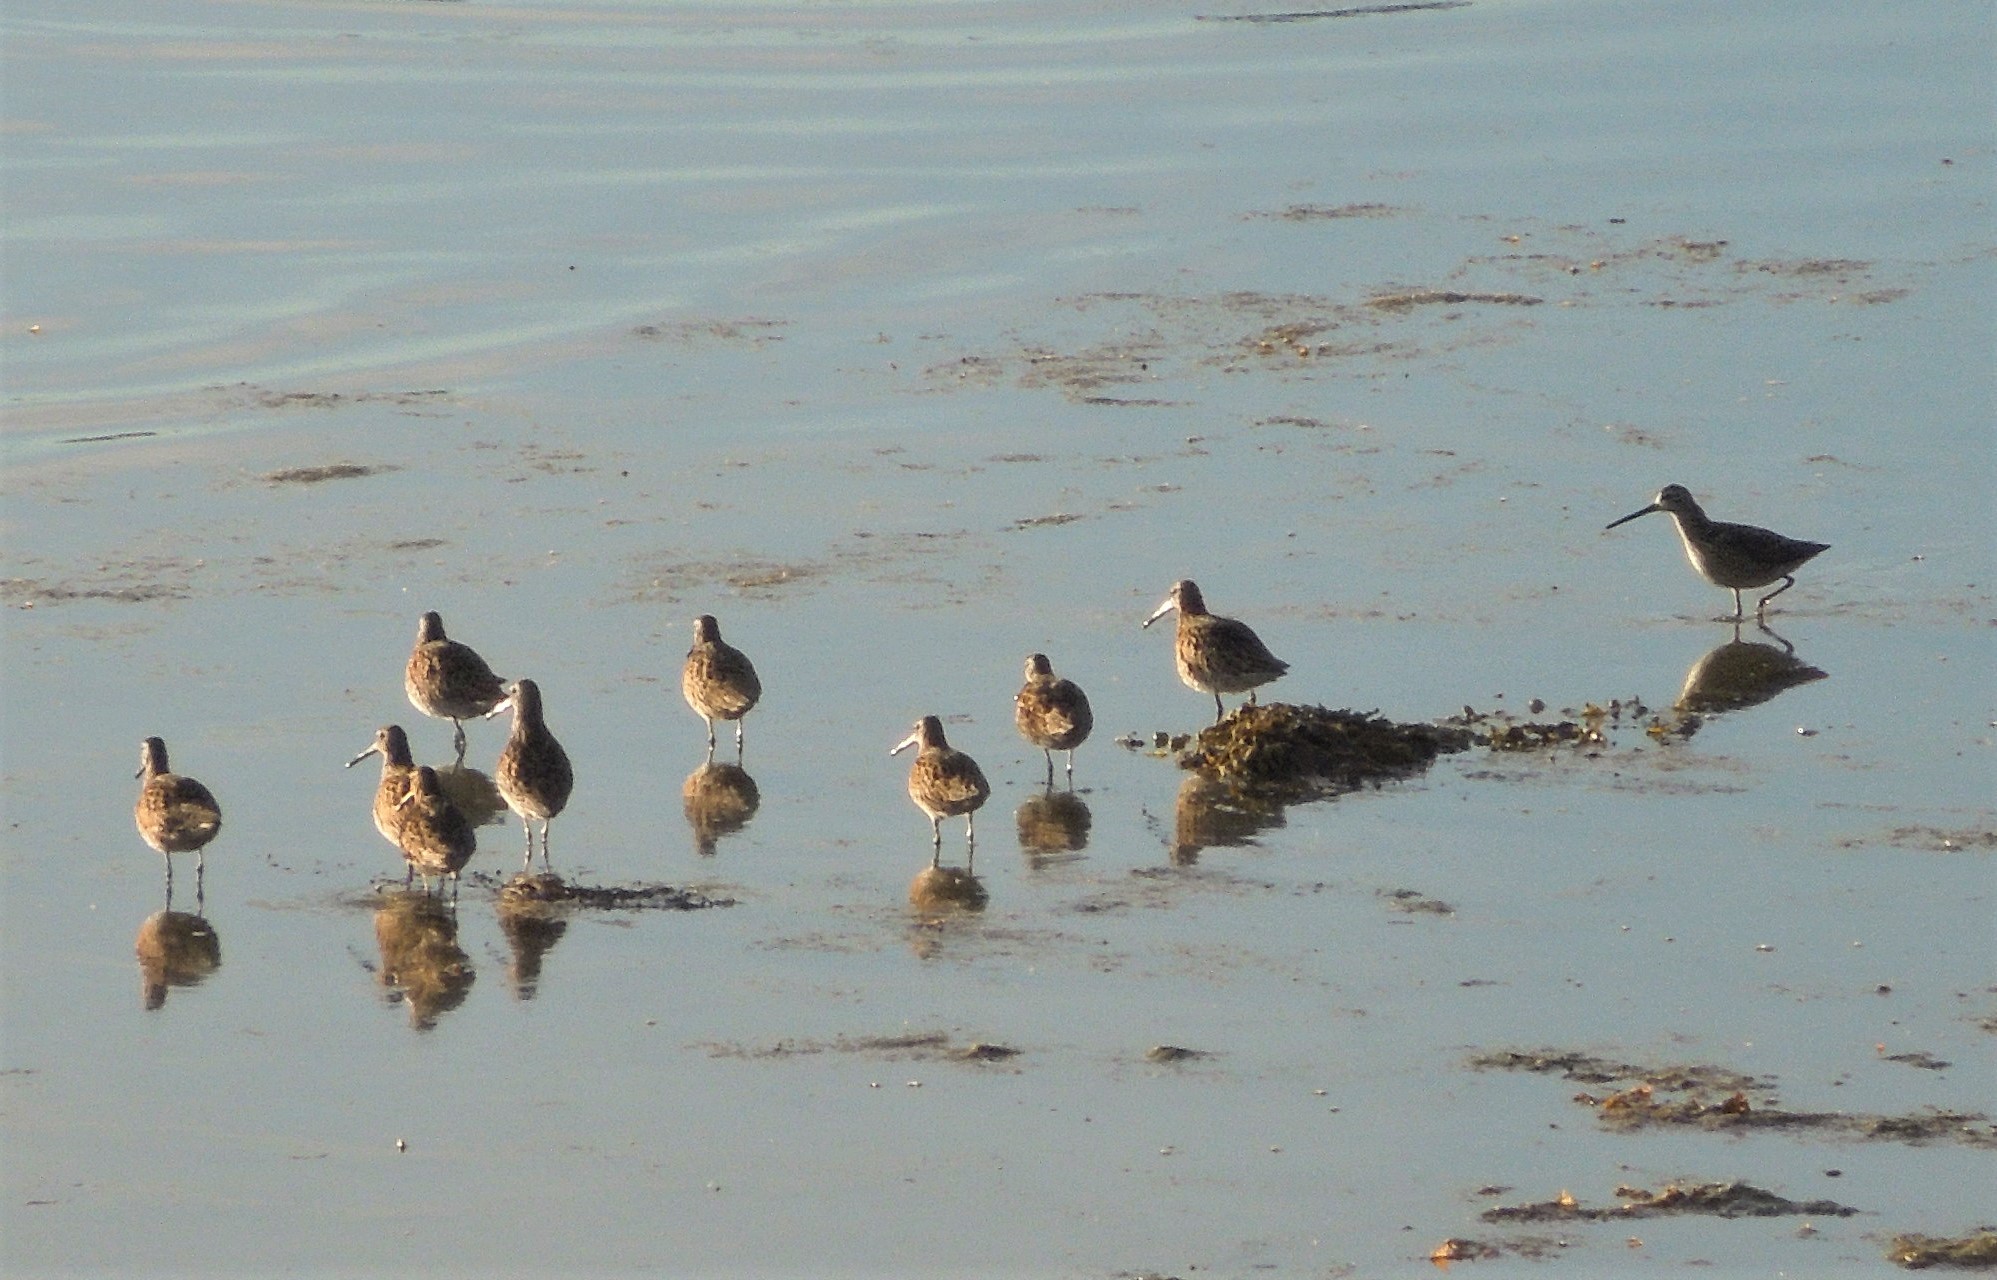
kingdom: Animalia
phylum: Chordata
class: Aves
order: Charadriiformes
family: Scolopacidae
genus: Limnodromus
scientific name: Limnodromus
